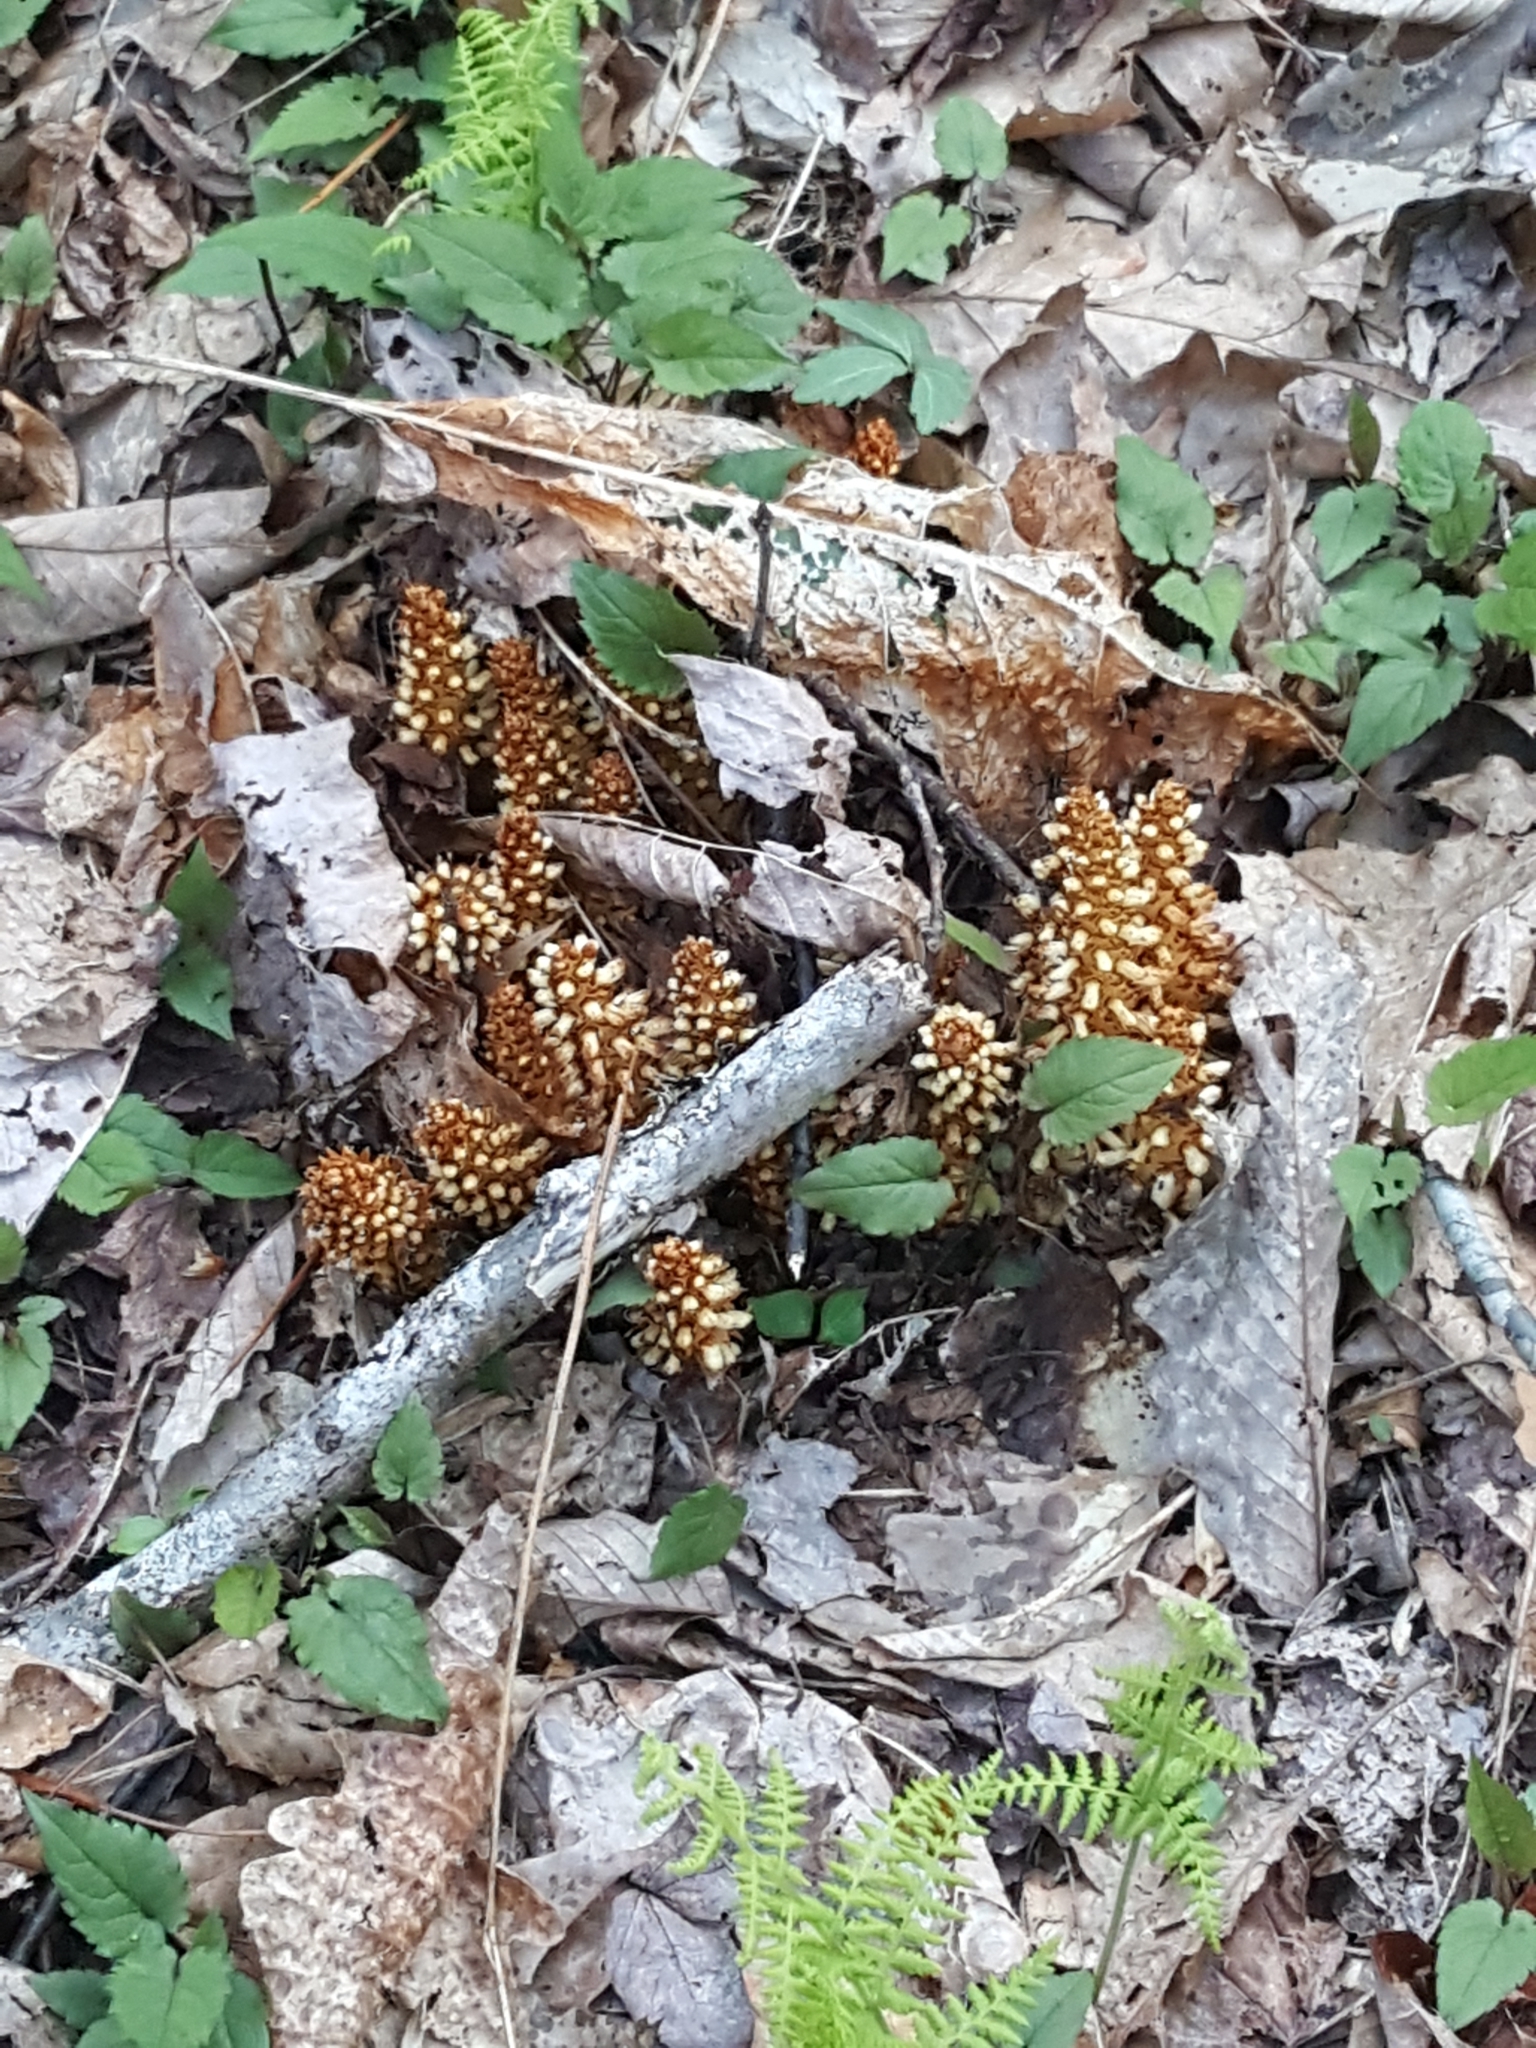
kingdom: Plantae
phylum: Tracheophyta
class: Magnoliopsida
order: Lamiales
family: Orobanchaceae
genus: Conopholis
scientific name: Conopholis americana
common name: American cancer-root
